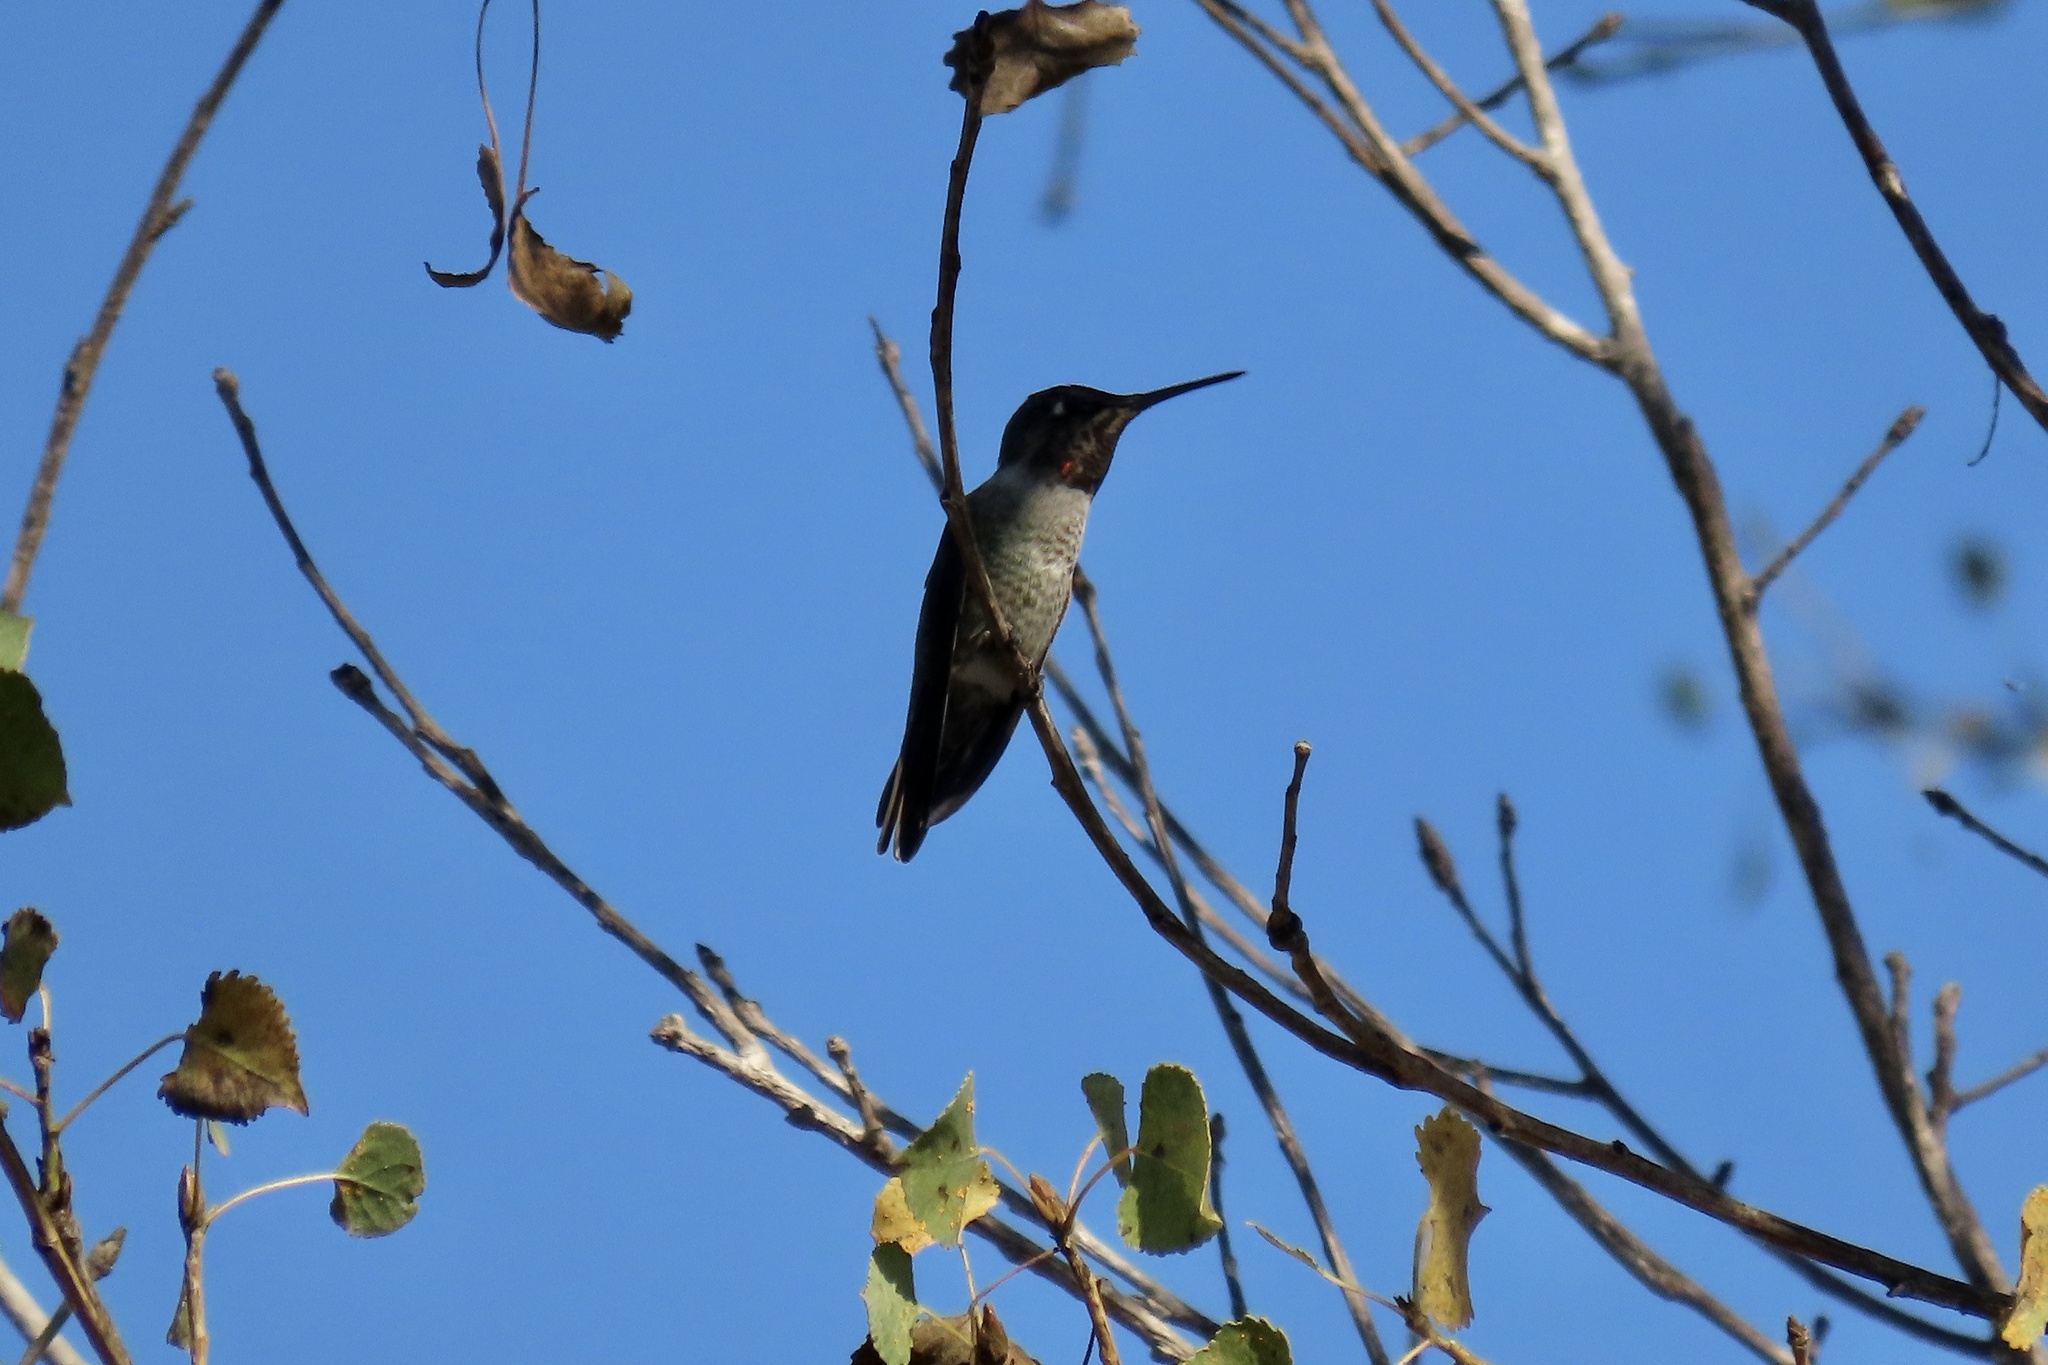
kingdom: Animalia
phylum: Chordata
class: Aves
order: Apodiformes
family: Trochilidae
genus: Calypte
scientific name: Calypte anna
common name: Anna's hummingbird
